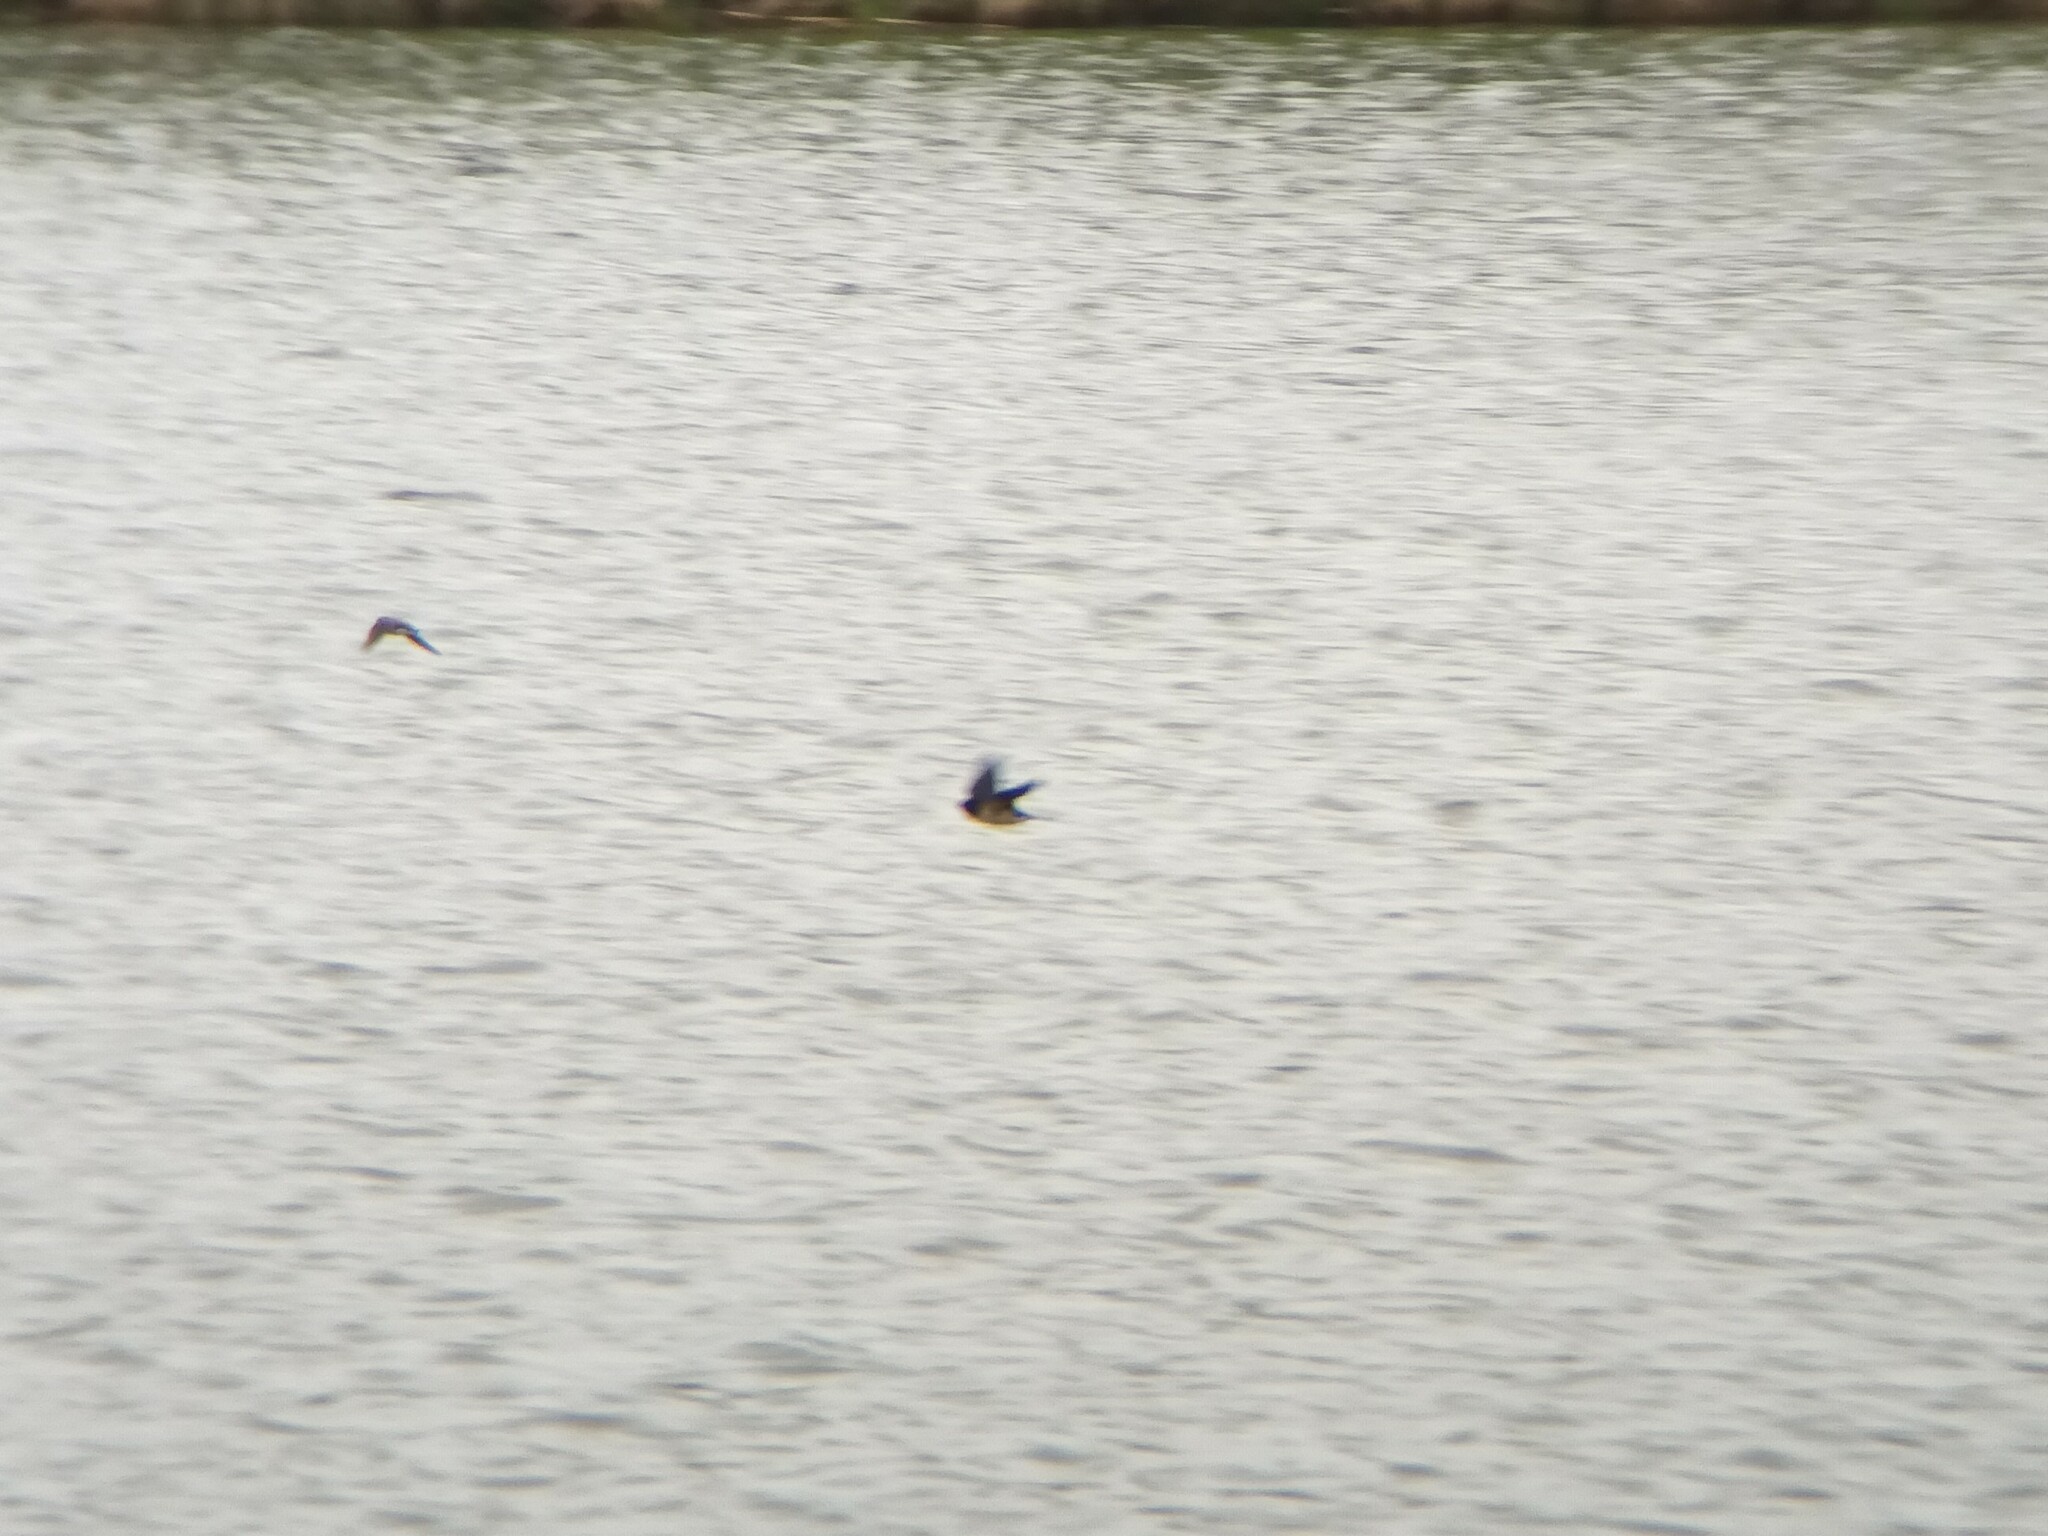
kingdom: Animalia
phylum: Chordata
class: Aves
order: Passeriformes
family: Hirundinidae
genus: Hirundo
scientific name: Hirundo rustica
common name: Barn swallow
